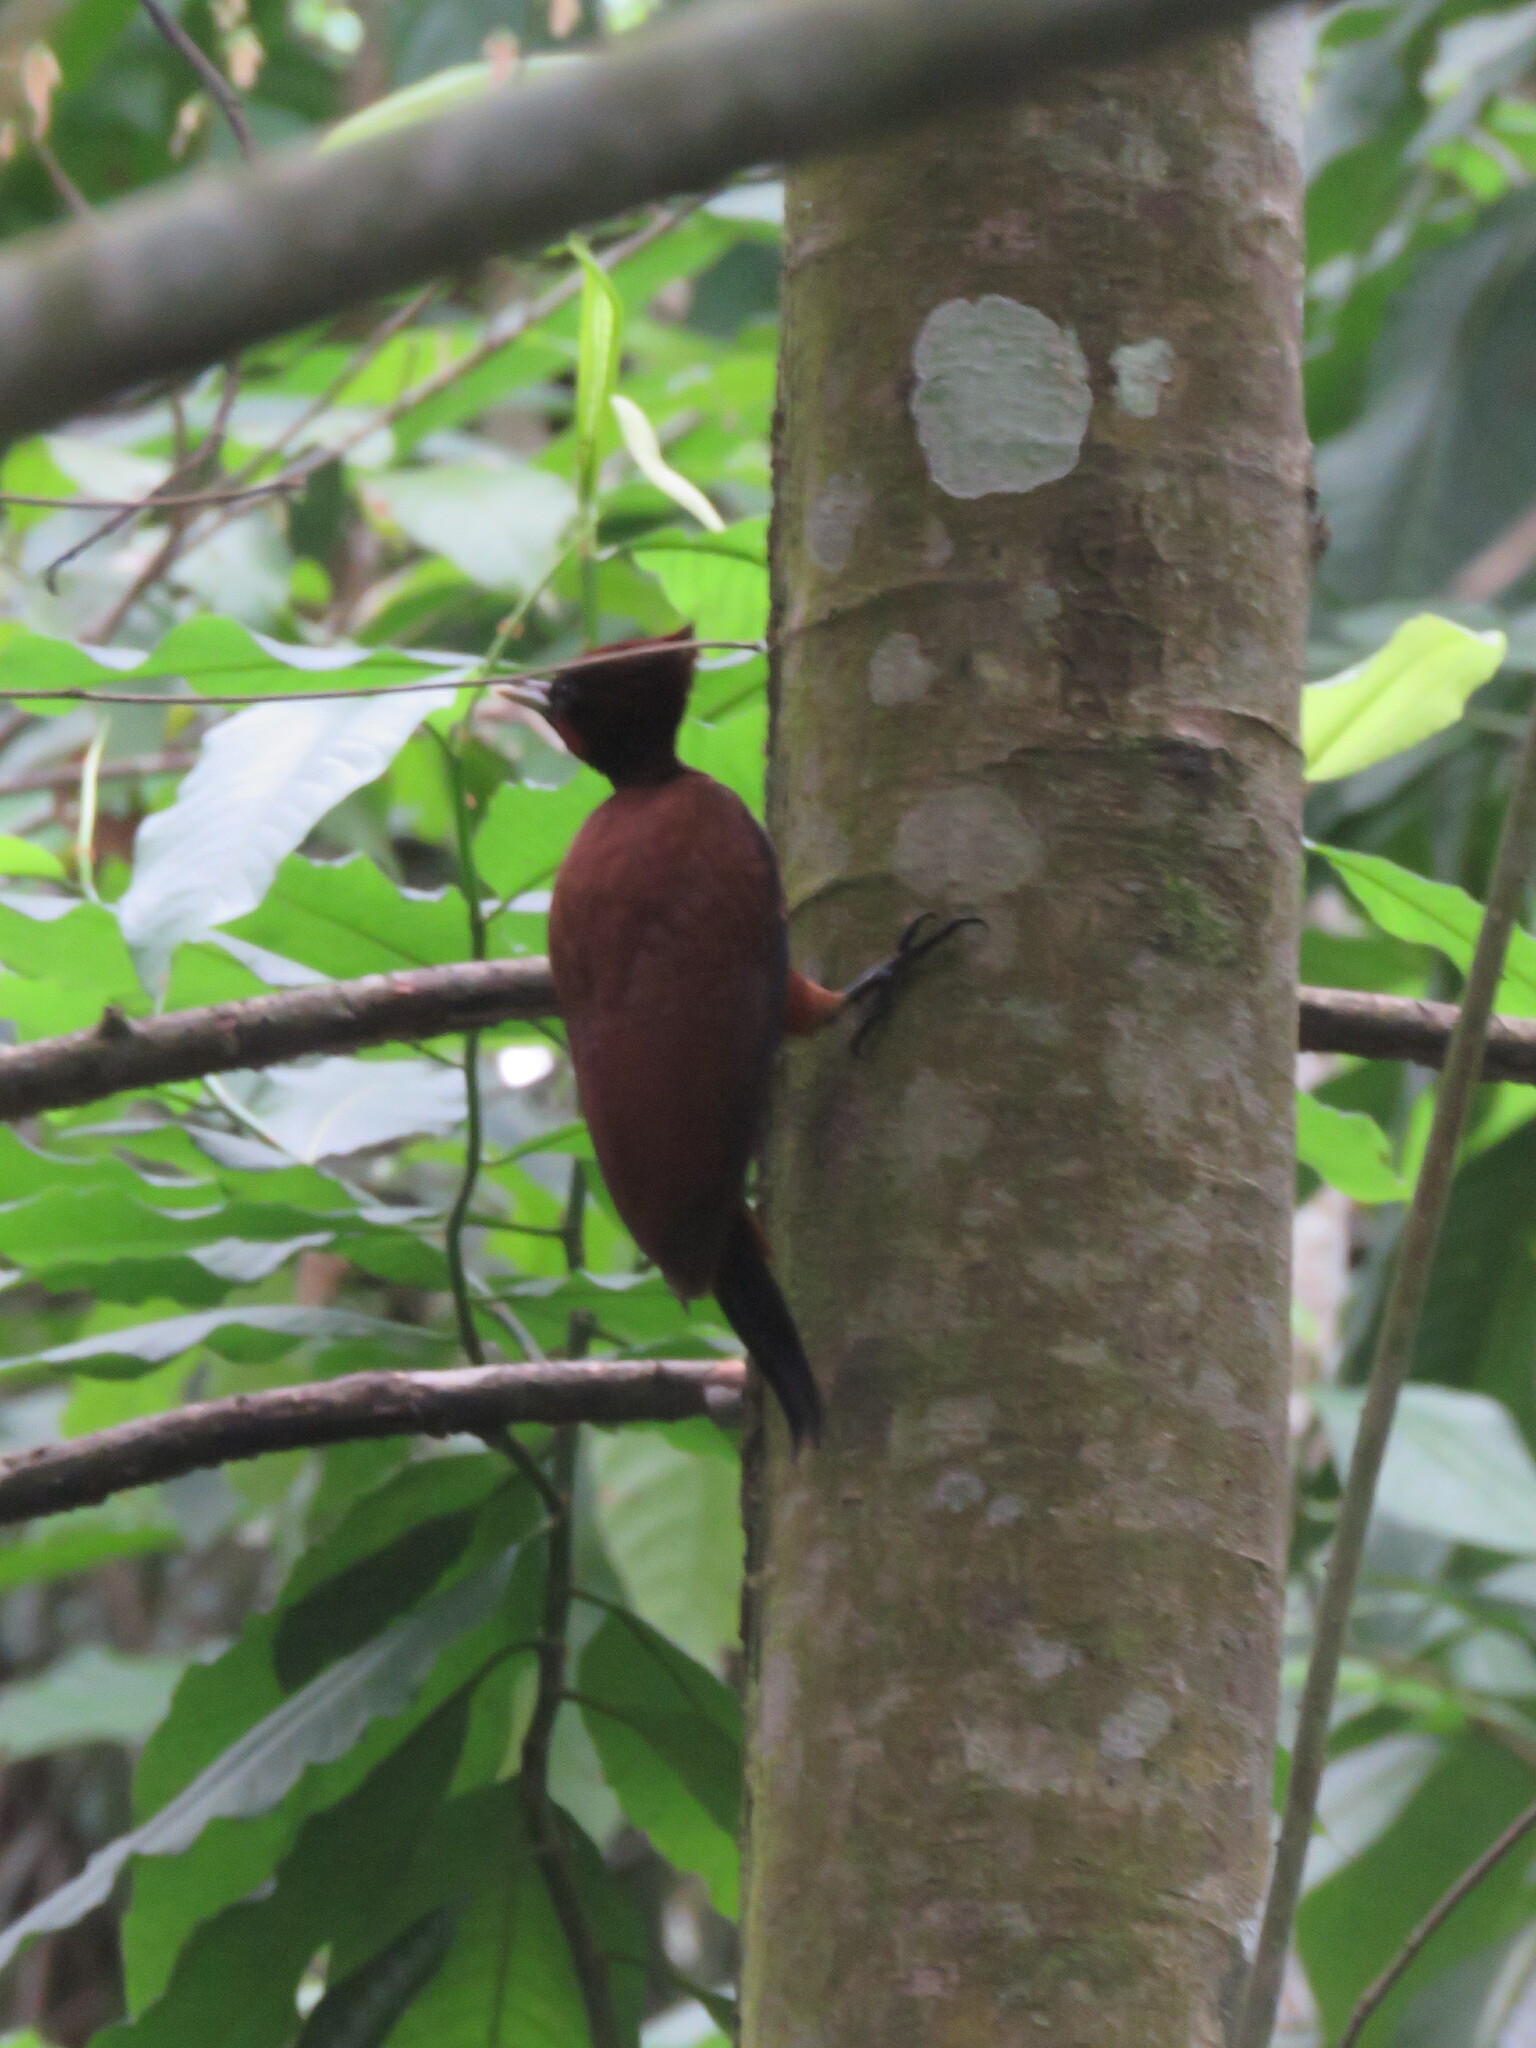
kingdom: Animalia
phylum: Chordata
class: Aves
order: Piciformes
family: Picidae
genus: Celeus
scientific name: Celeus elegans
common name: Chestnut woodpecker
